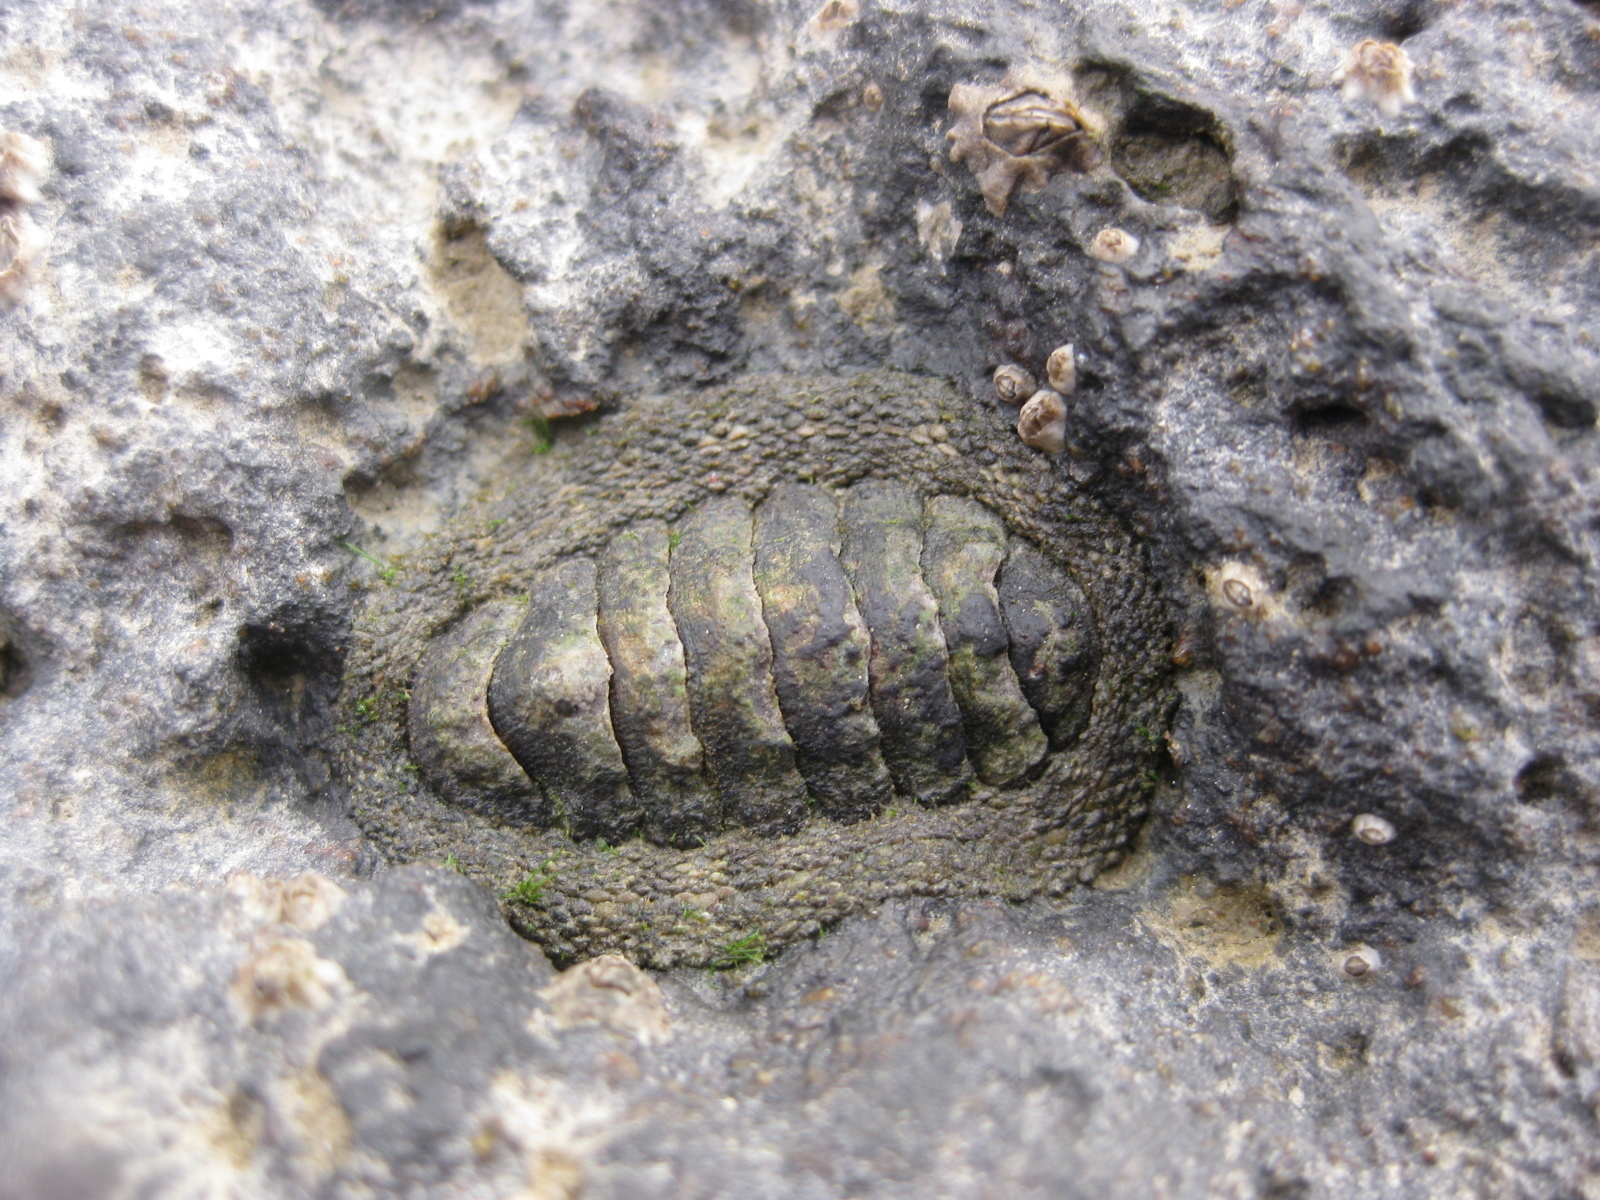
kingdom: Animalia
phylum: Mollusca
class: Polyplacophora
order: Chitonida
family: Chitonidae
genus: Sypharochiton
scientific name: Sypharochiton pelliserpentis
